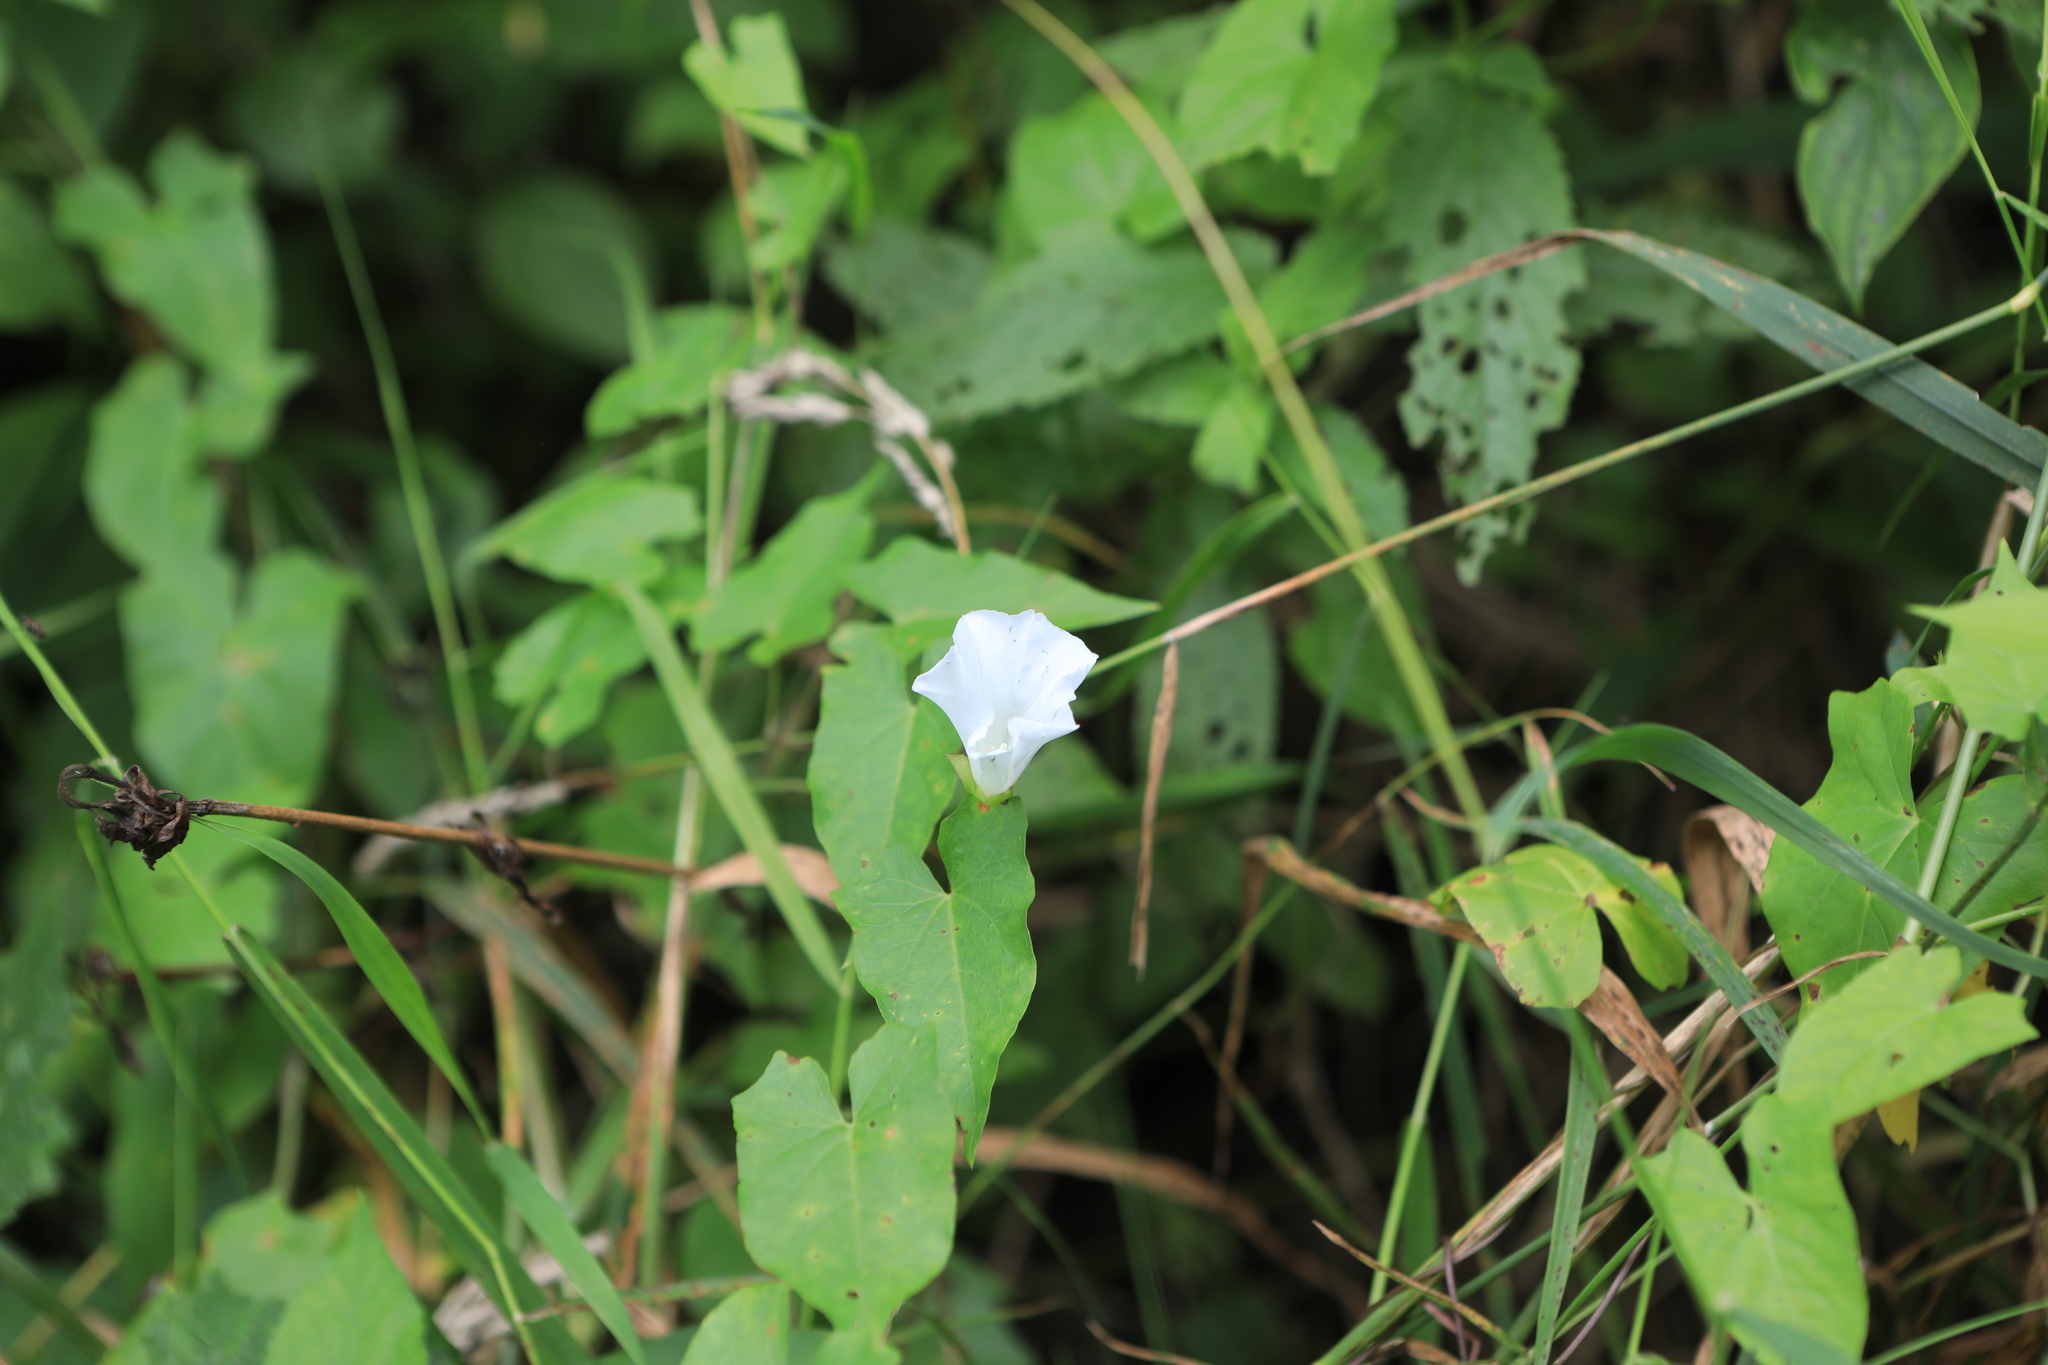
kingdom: Plantae
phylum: Tracheophyta
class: Magnoliopsida
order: Solanales
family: Convolvulaceae
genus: Calystegia
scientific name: Calystegia sepium
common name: Hedge bindweed
